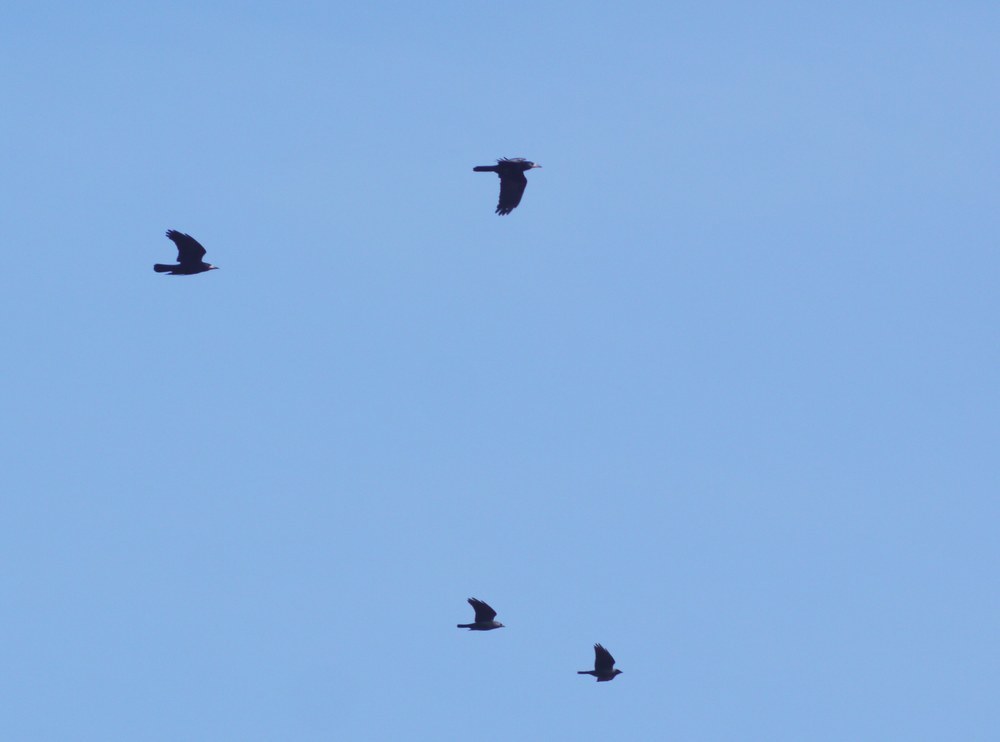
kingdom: Animalia
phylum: Chordata
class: Aves
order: Passeriformes
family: Corvidae
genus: Corvus
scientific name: Corvus frugilegus
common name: Rook
